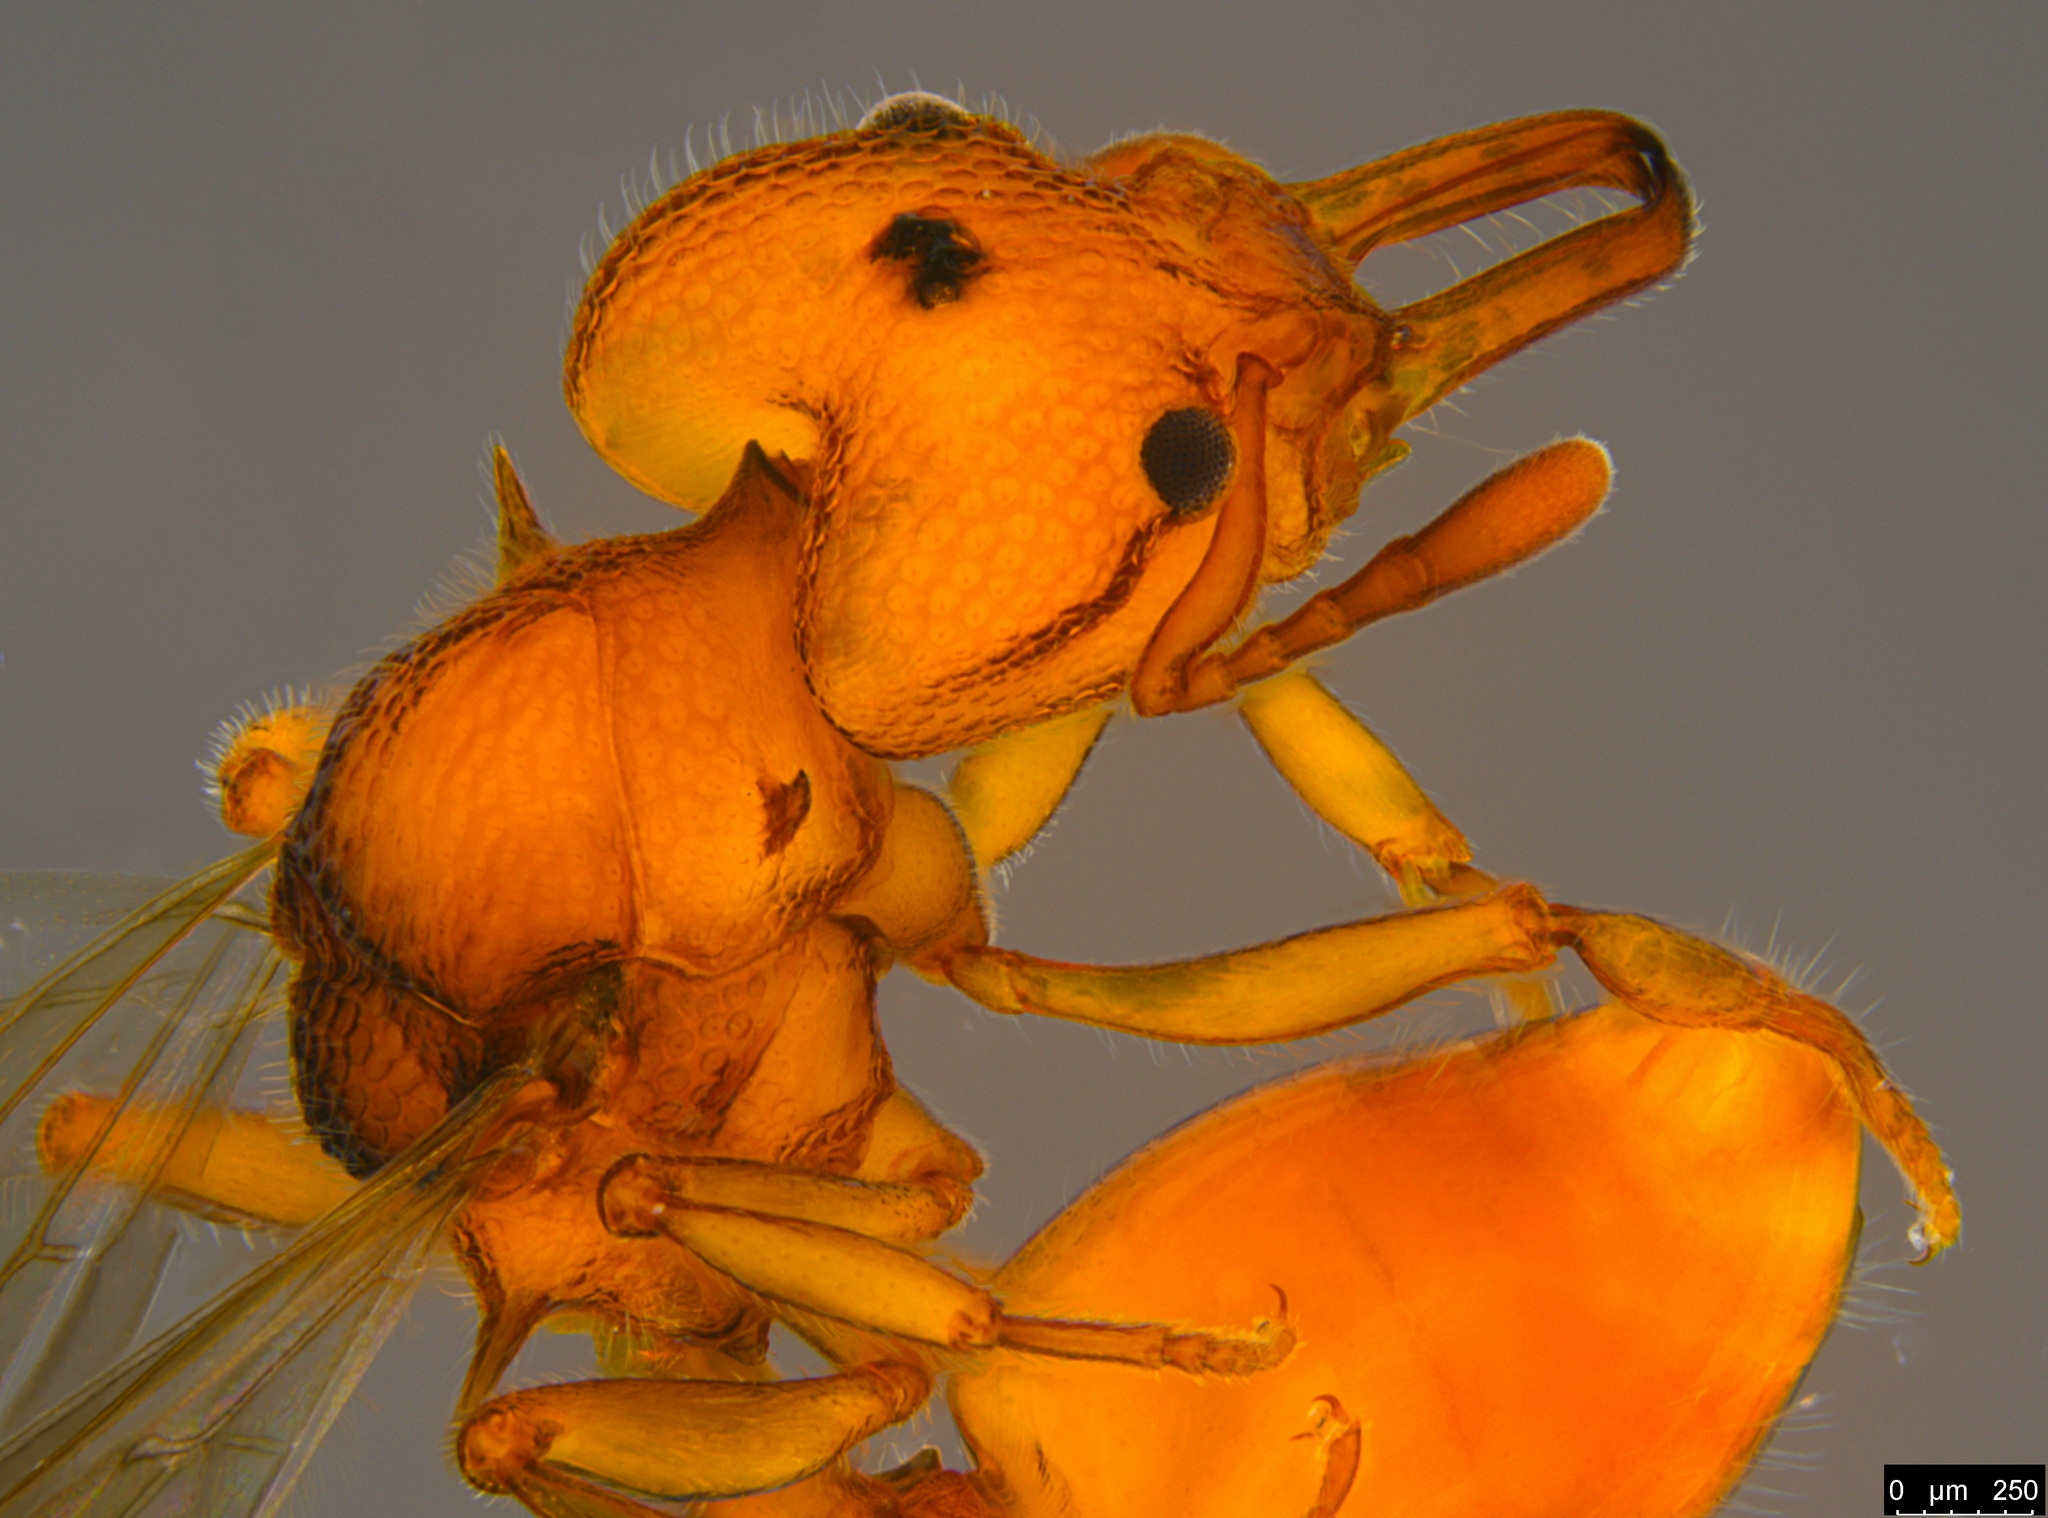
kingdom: Animalia
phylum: Arthropoda
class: Insecta
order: Hymenoptera
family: Formicidae
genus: Epopostruma
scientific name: Epopostruma
